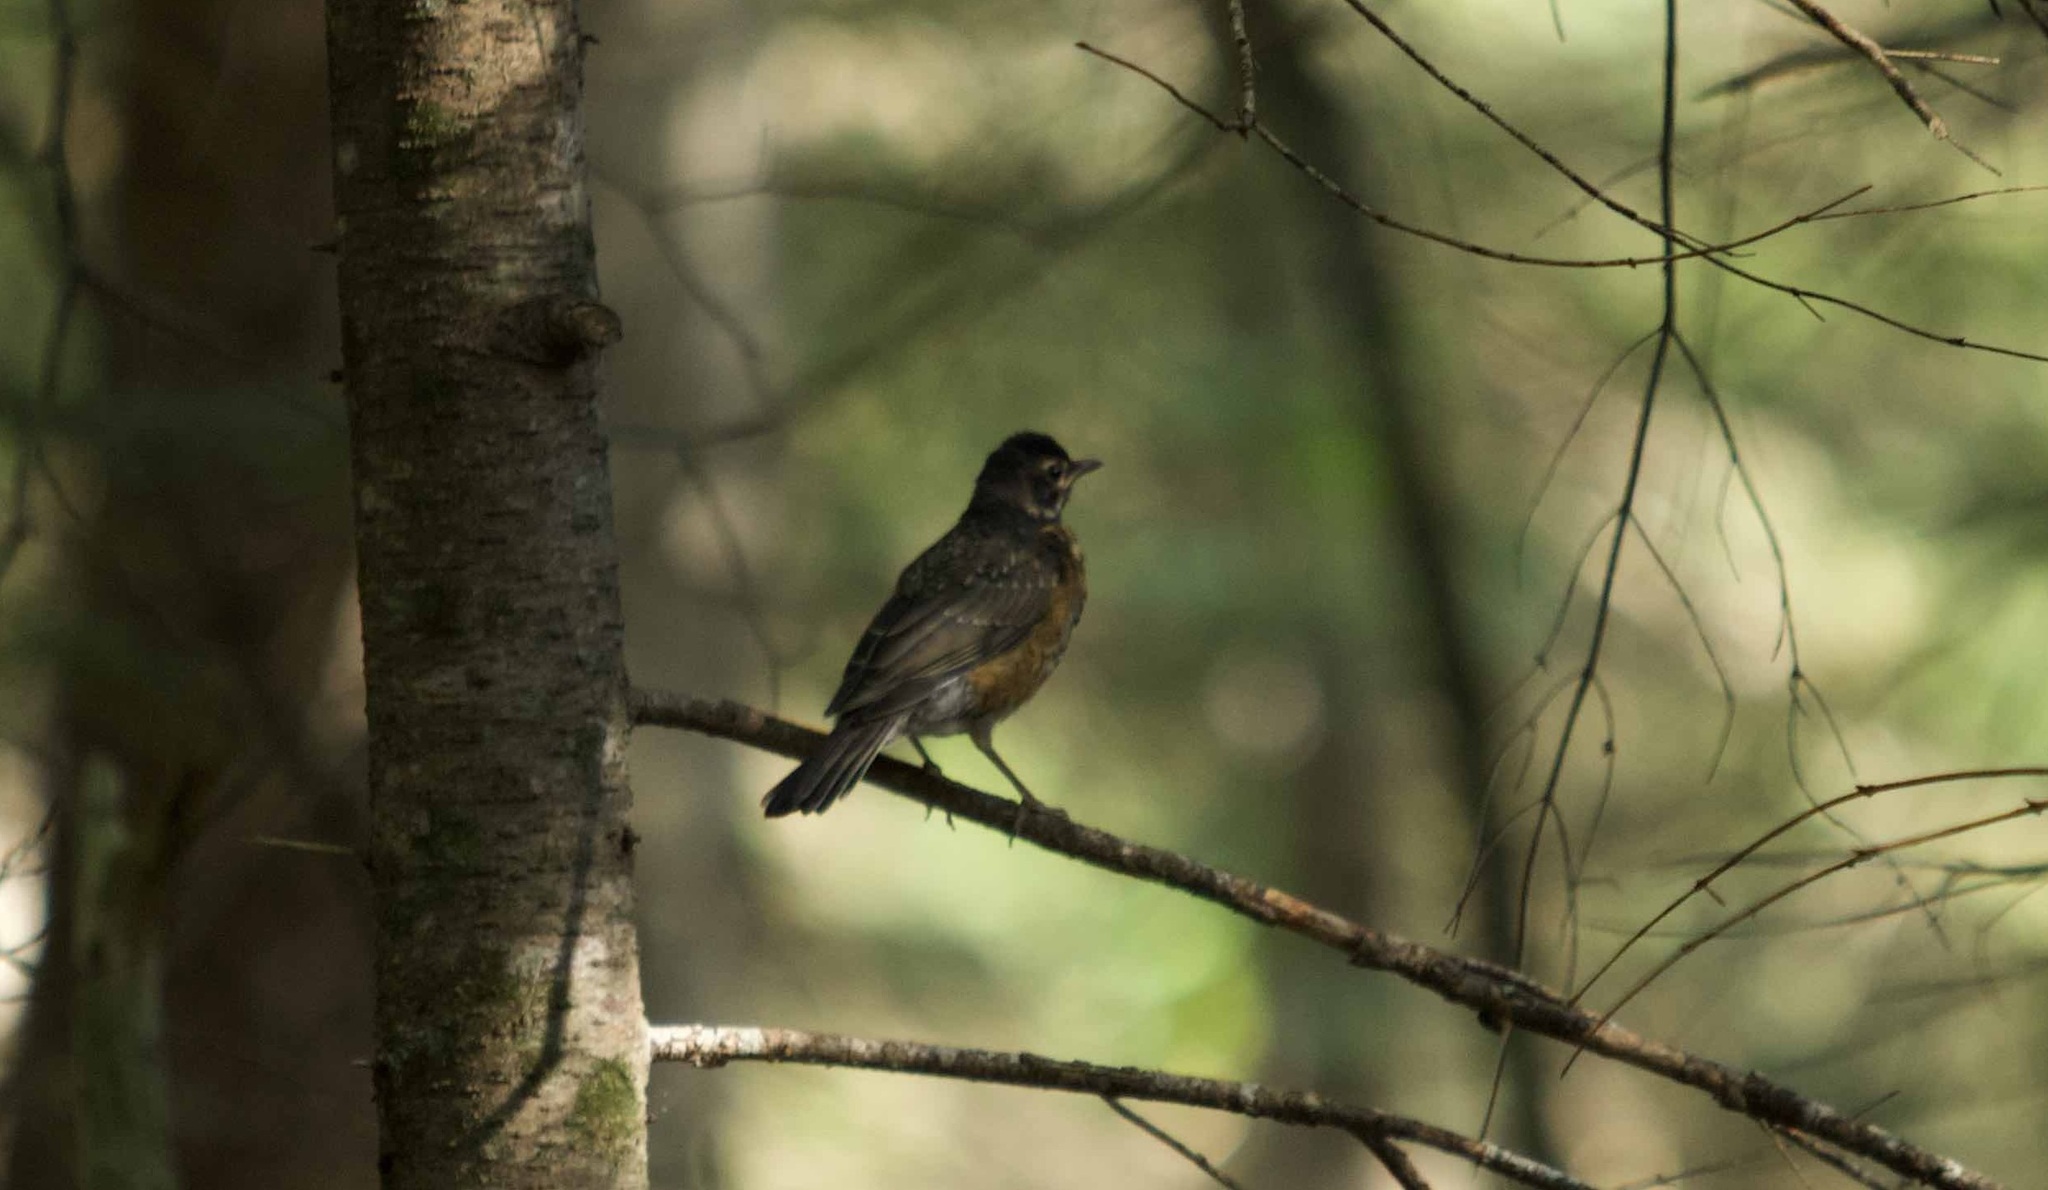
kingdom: Animalia
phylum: Chordata
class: Aves
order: Passeriformes
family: Turdidae
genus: Turdus
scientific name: Turdus migratorius
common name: American robin
